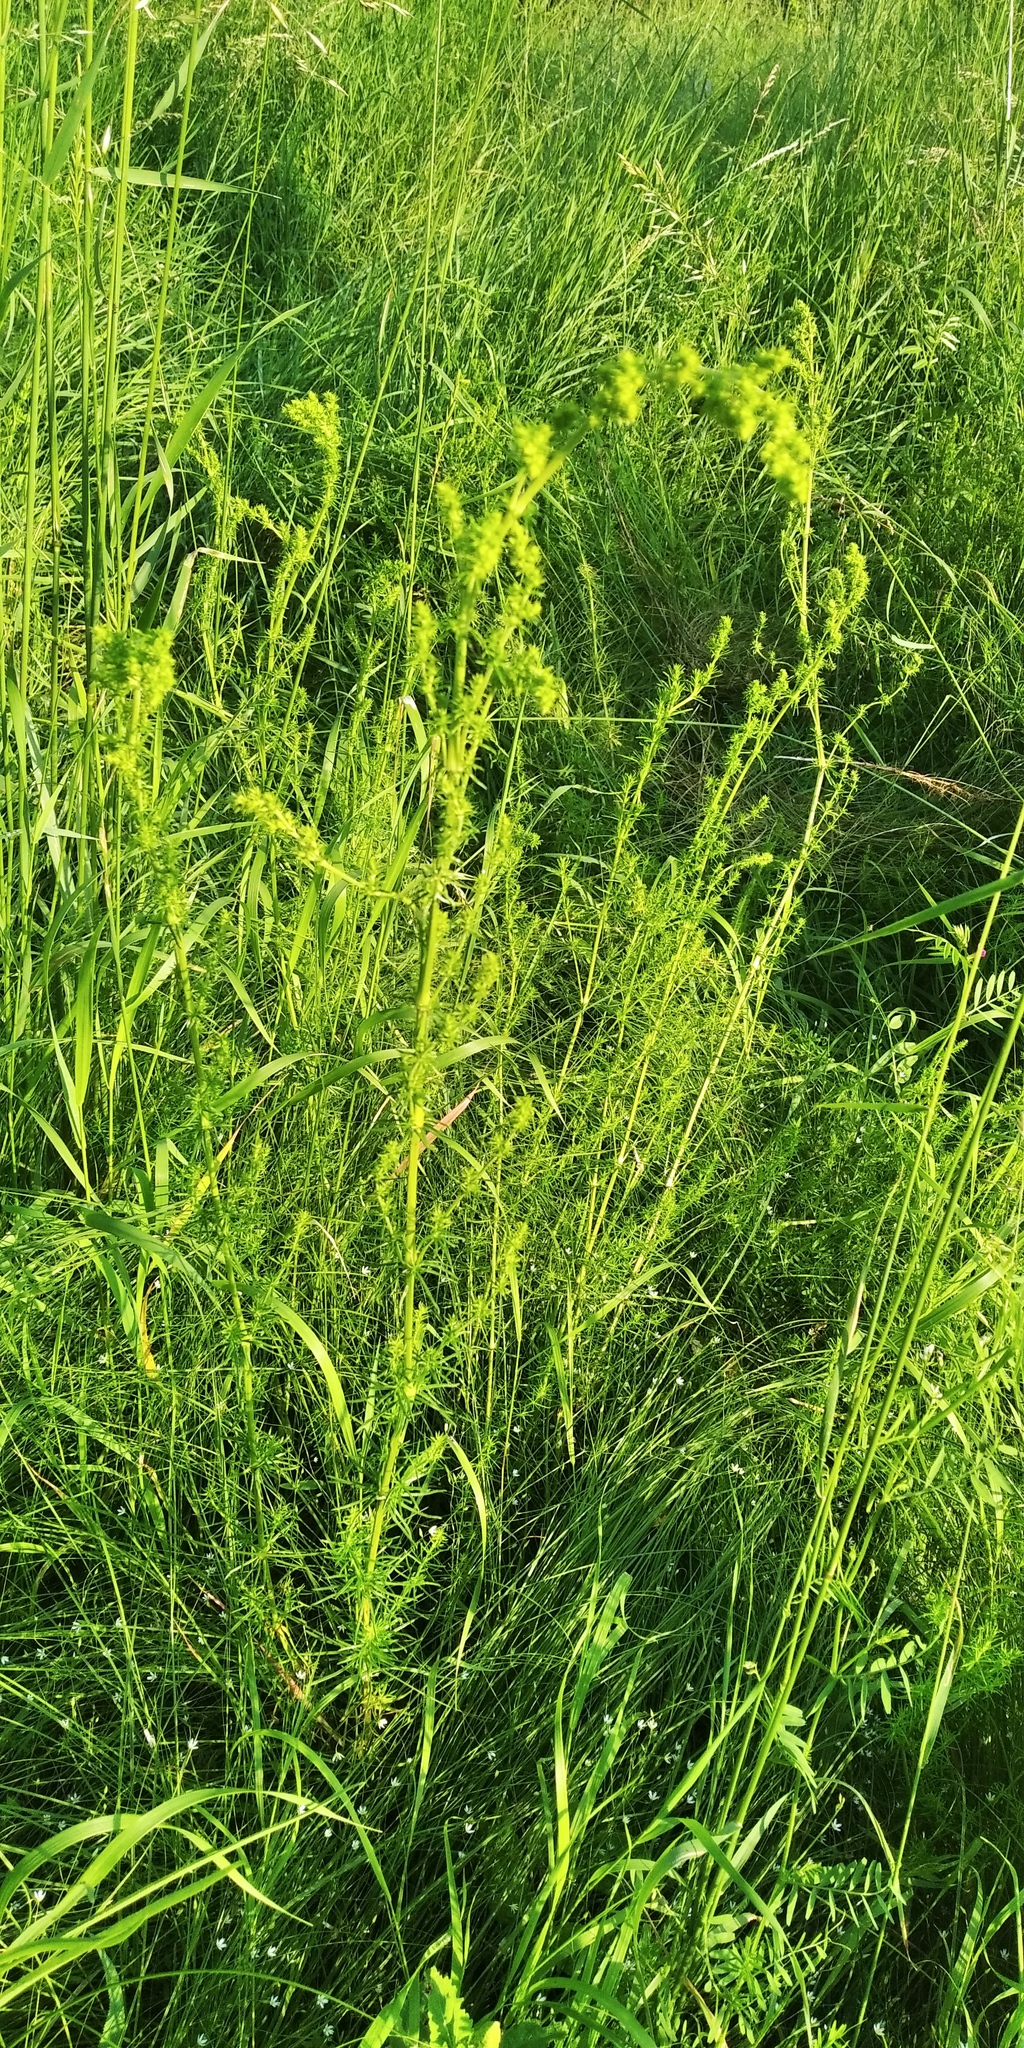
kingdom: Plantae
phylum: Tracheophyta
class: Magnoliopsida
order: Gentianales
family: Rubiaceae
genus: Galium
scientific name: Galium verum
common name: Lady's bedstraw
